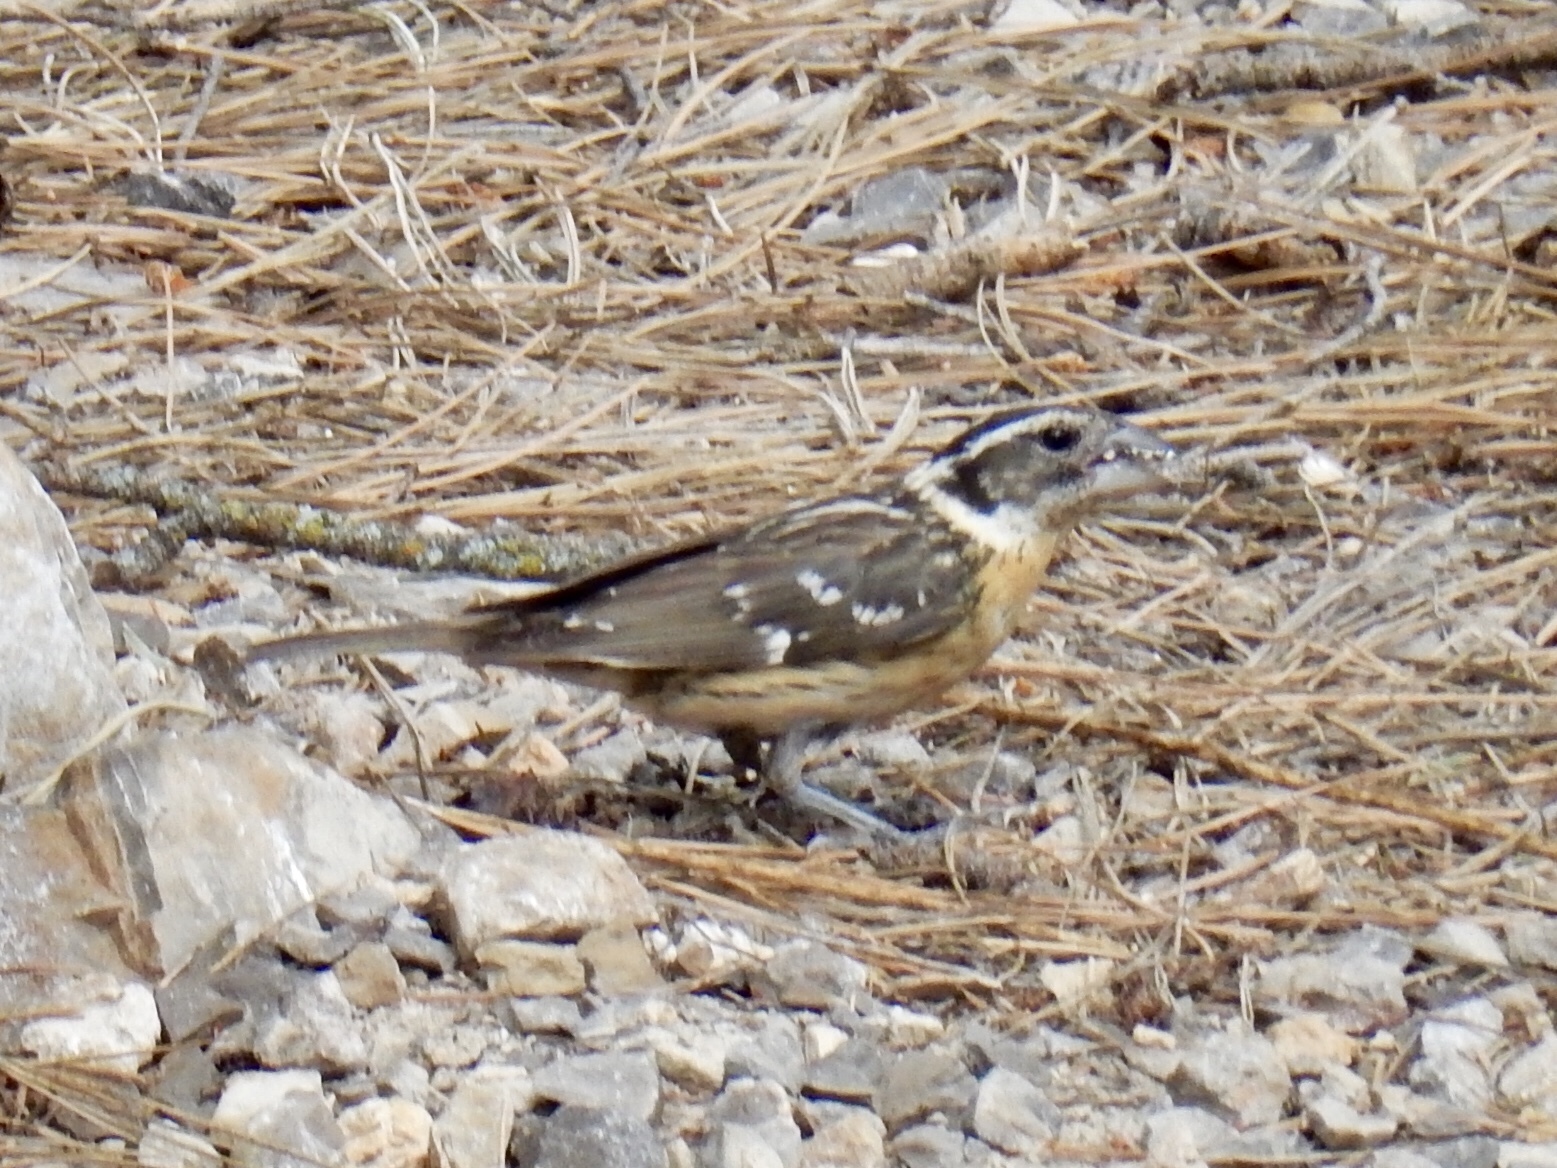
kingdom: Animalia
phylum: Chordata
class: Aves
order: Passeriformes
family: Cardinalidae
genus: Pheucticus
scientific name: Pheucticus melanocephalus
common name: Black-headed grosbeak
